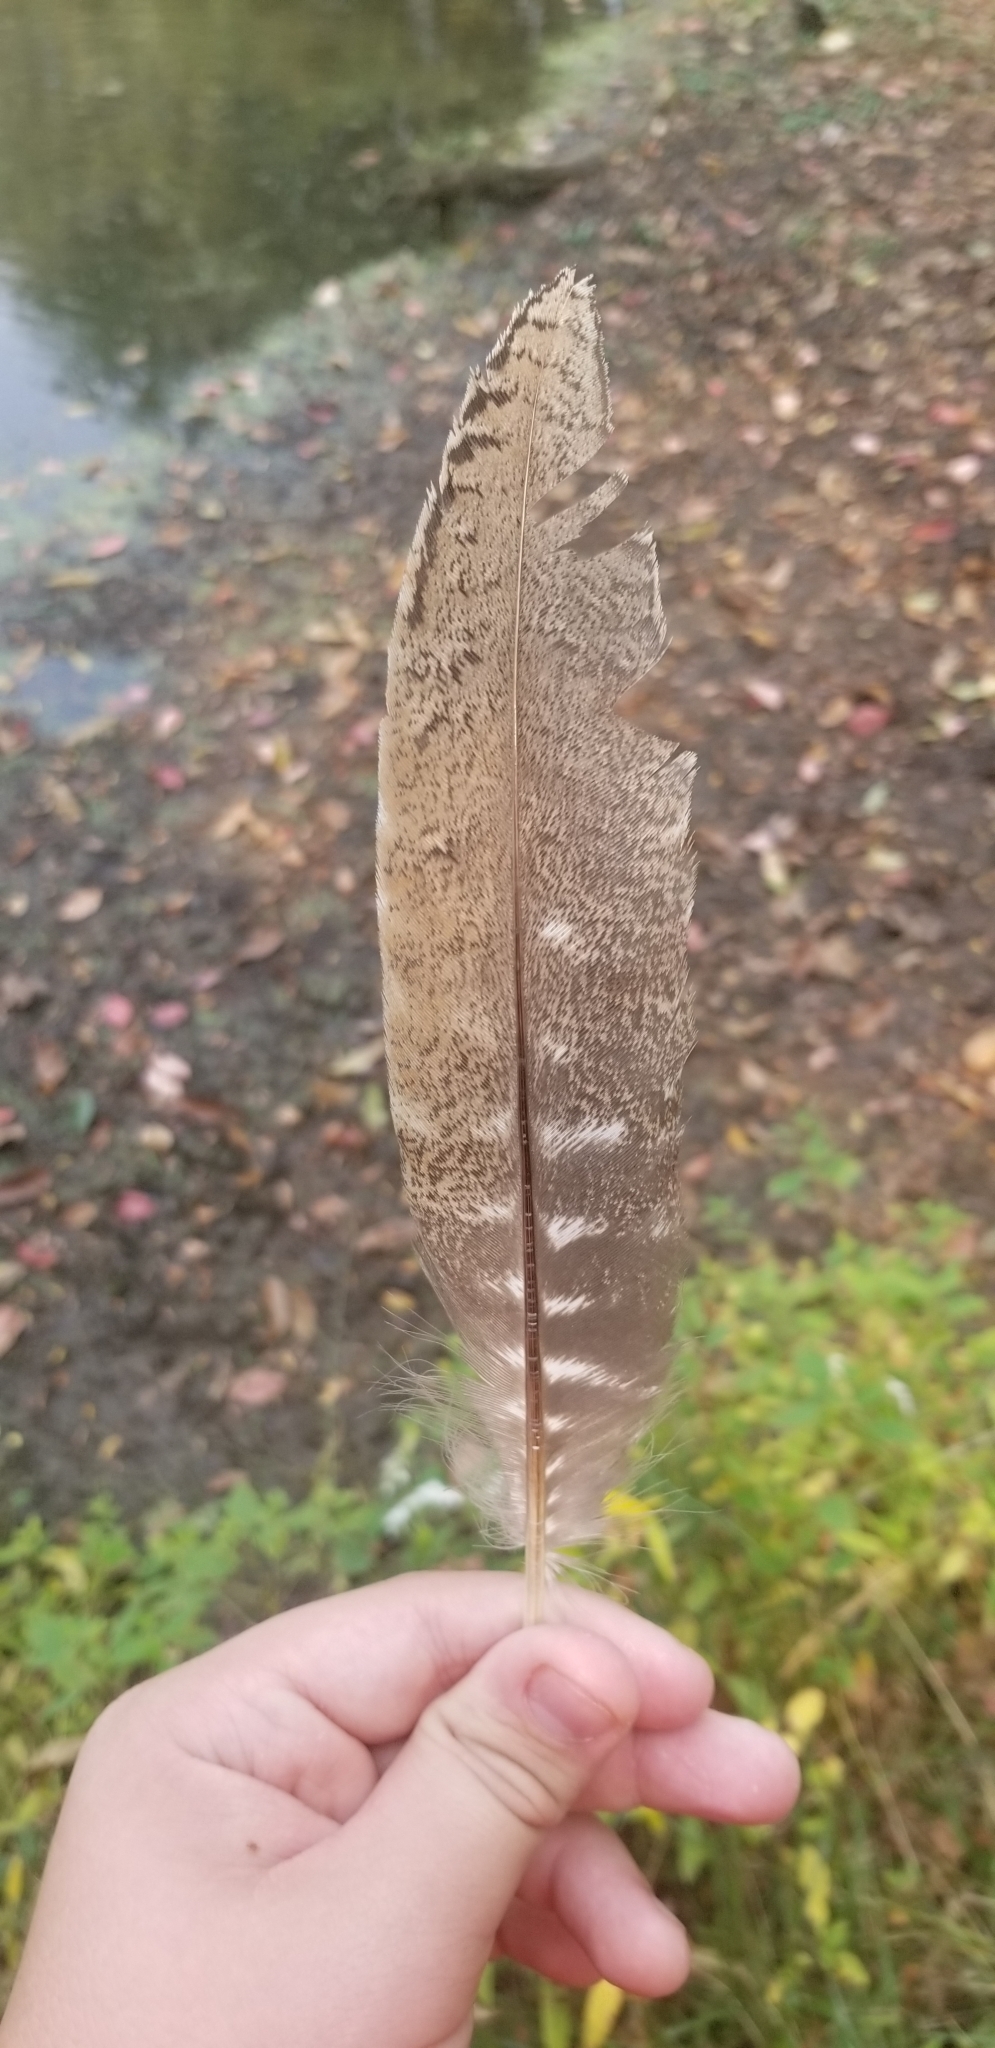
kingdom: Animalia
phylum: Chordata
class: Aves
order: Galliformes
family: Phasianidae
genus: Meleagris
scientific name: Meleagris gallopavo
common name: Wild turkey
